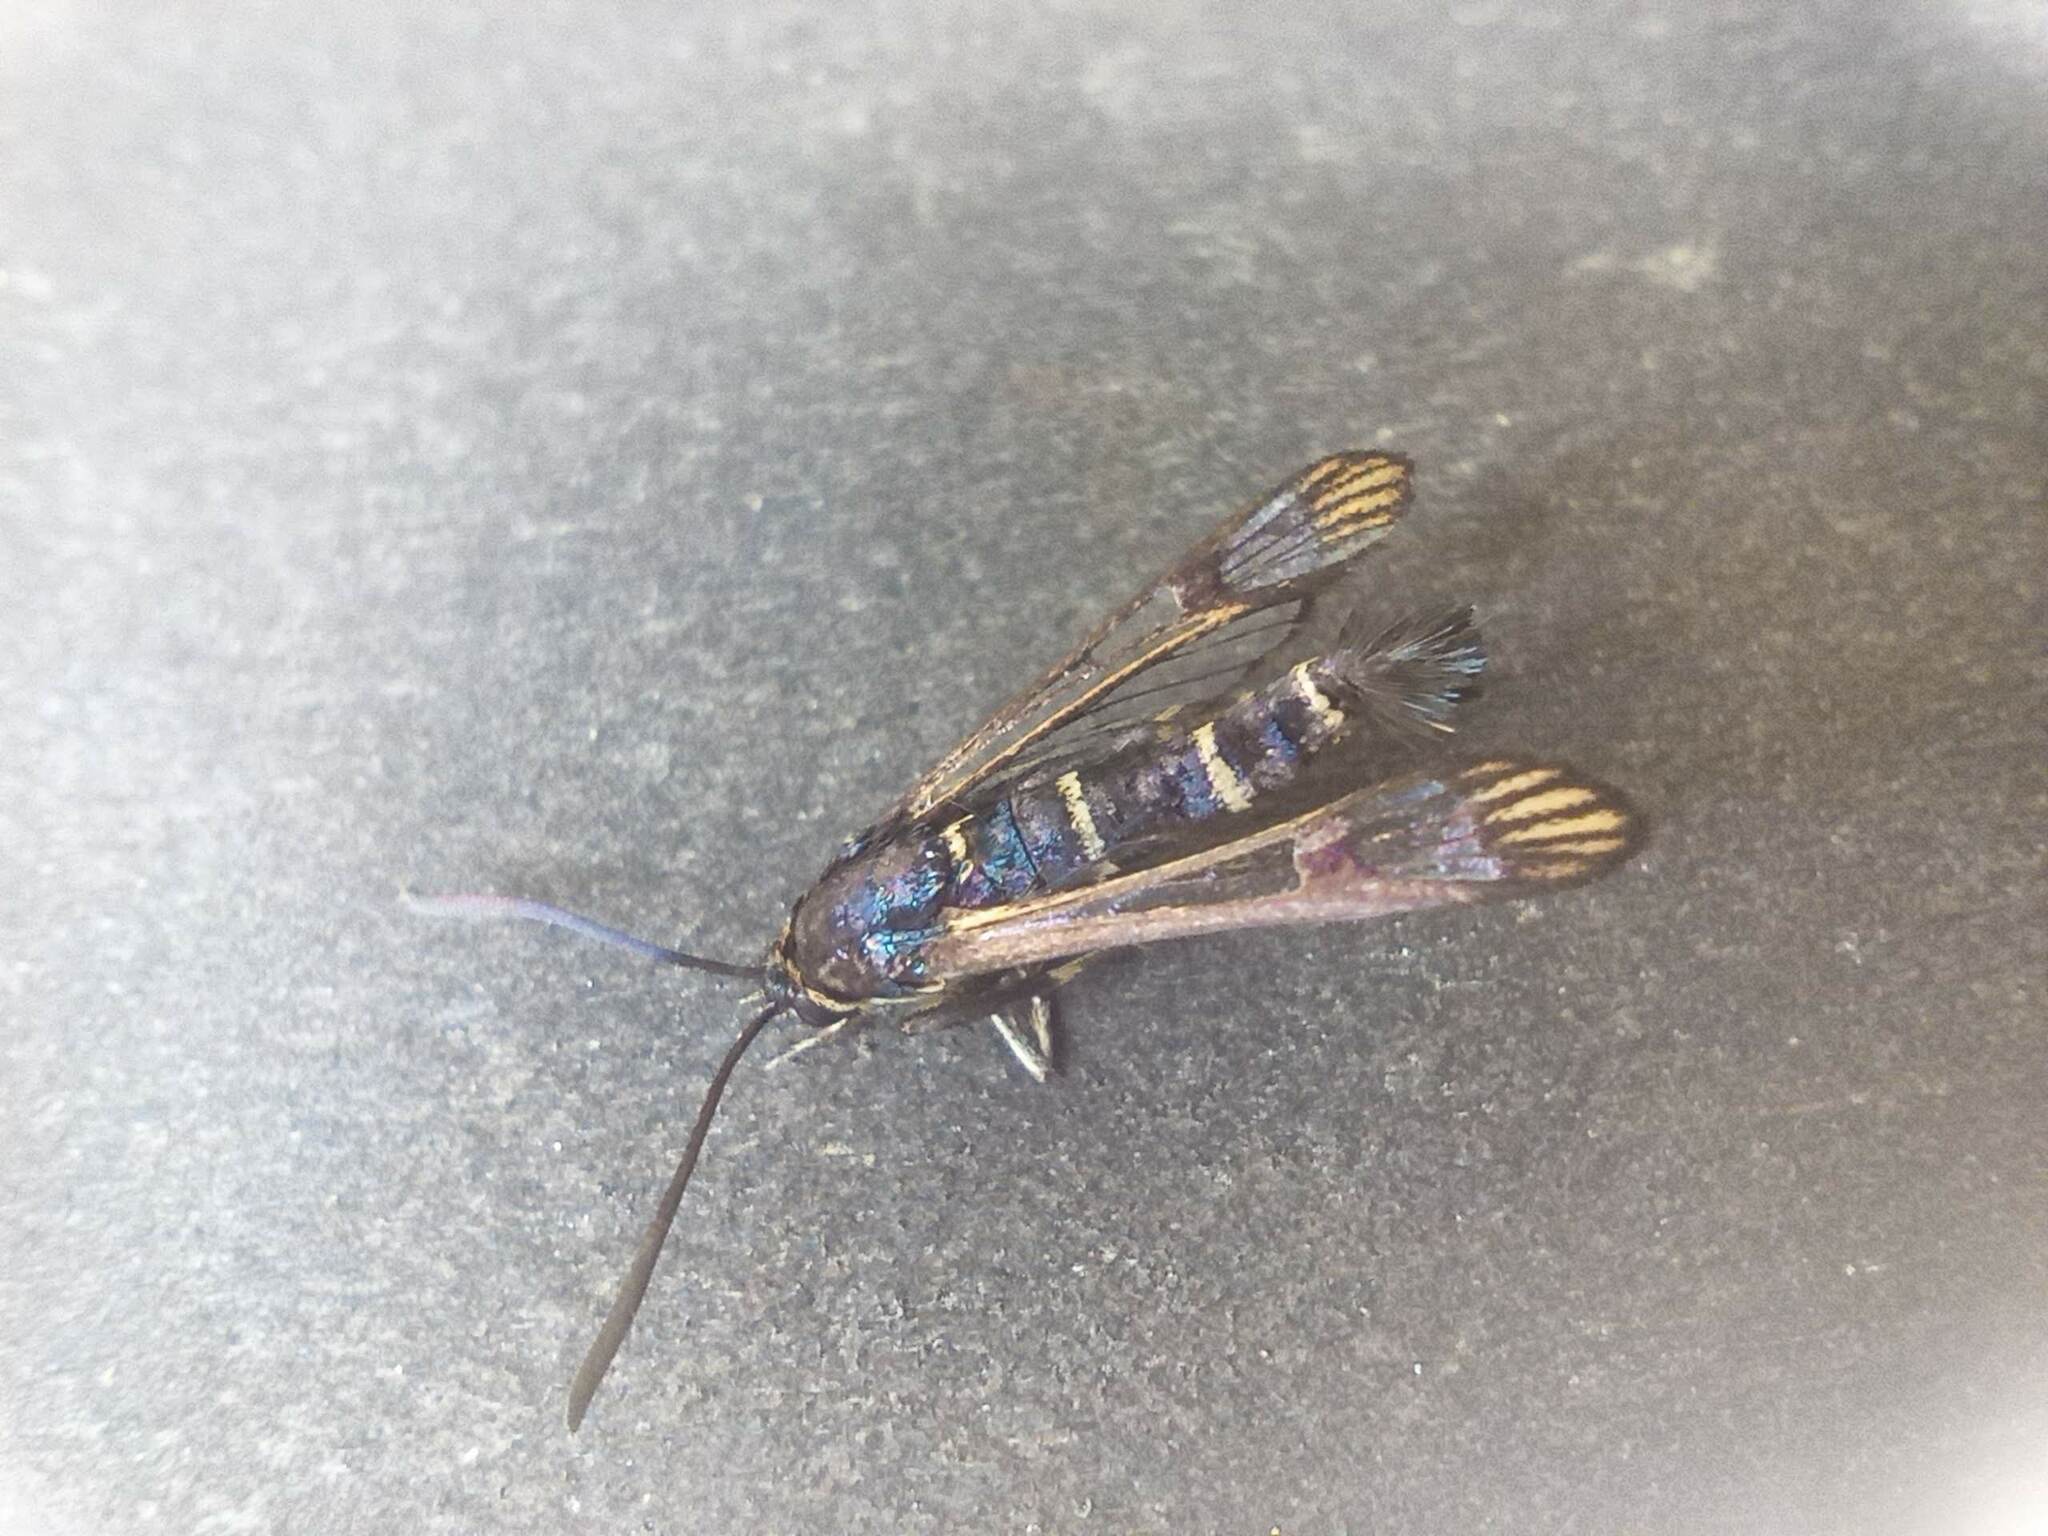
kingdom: Animalia
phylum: Arthropoda
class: Insecta
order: Lepidoptera
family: Sesiidae
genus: Synanthedon
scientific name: Synanthedon conopiformis
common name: Dale's oak clearwing
